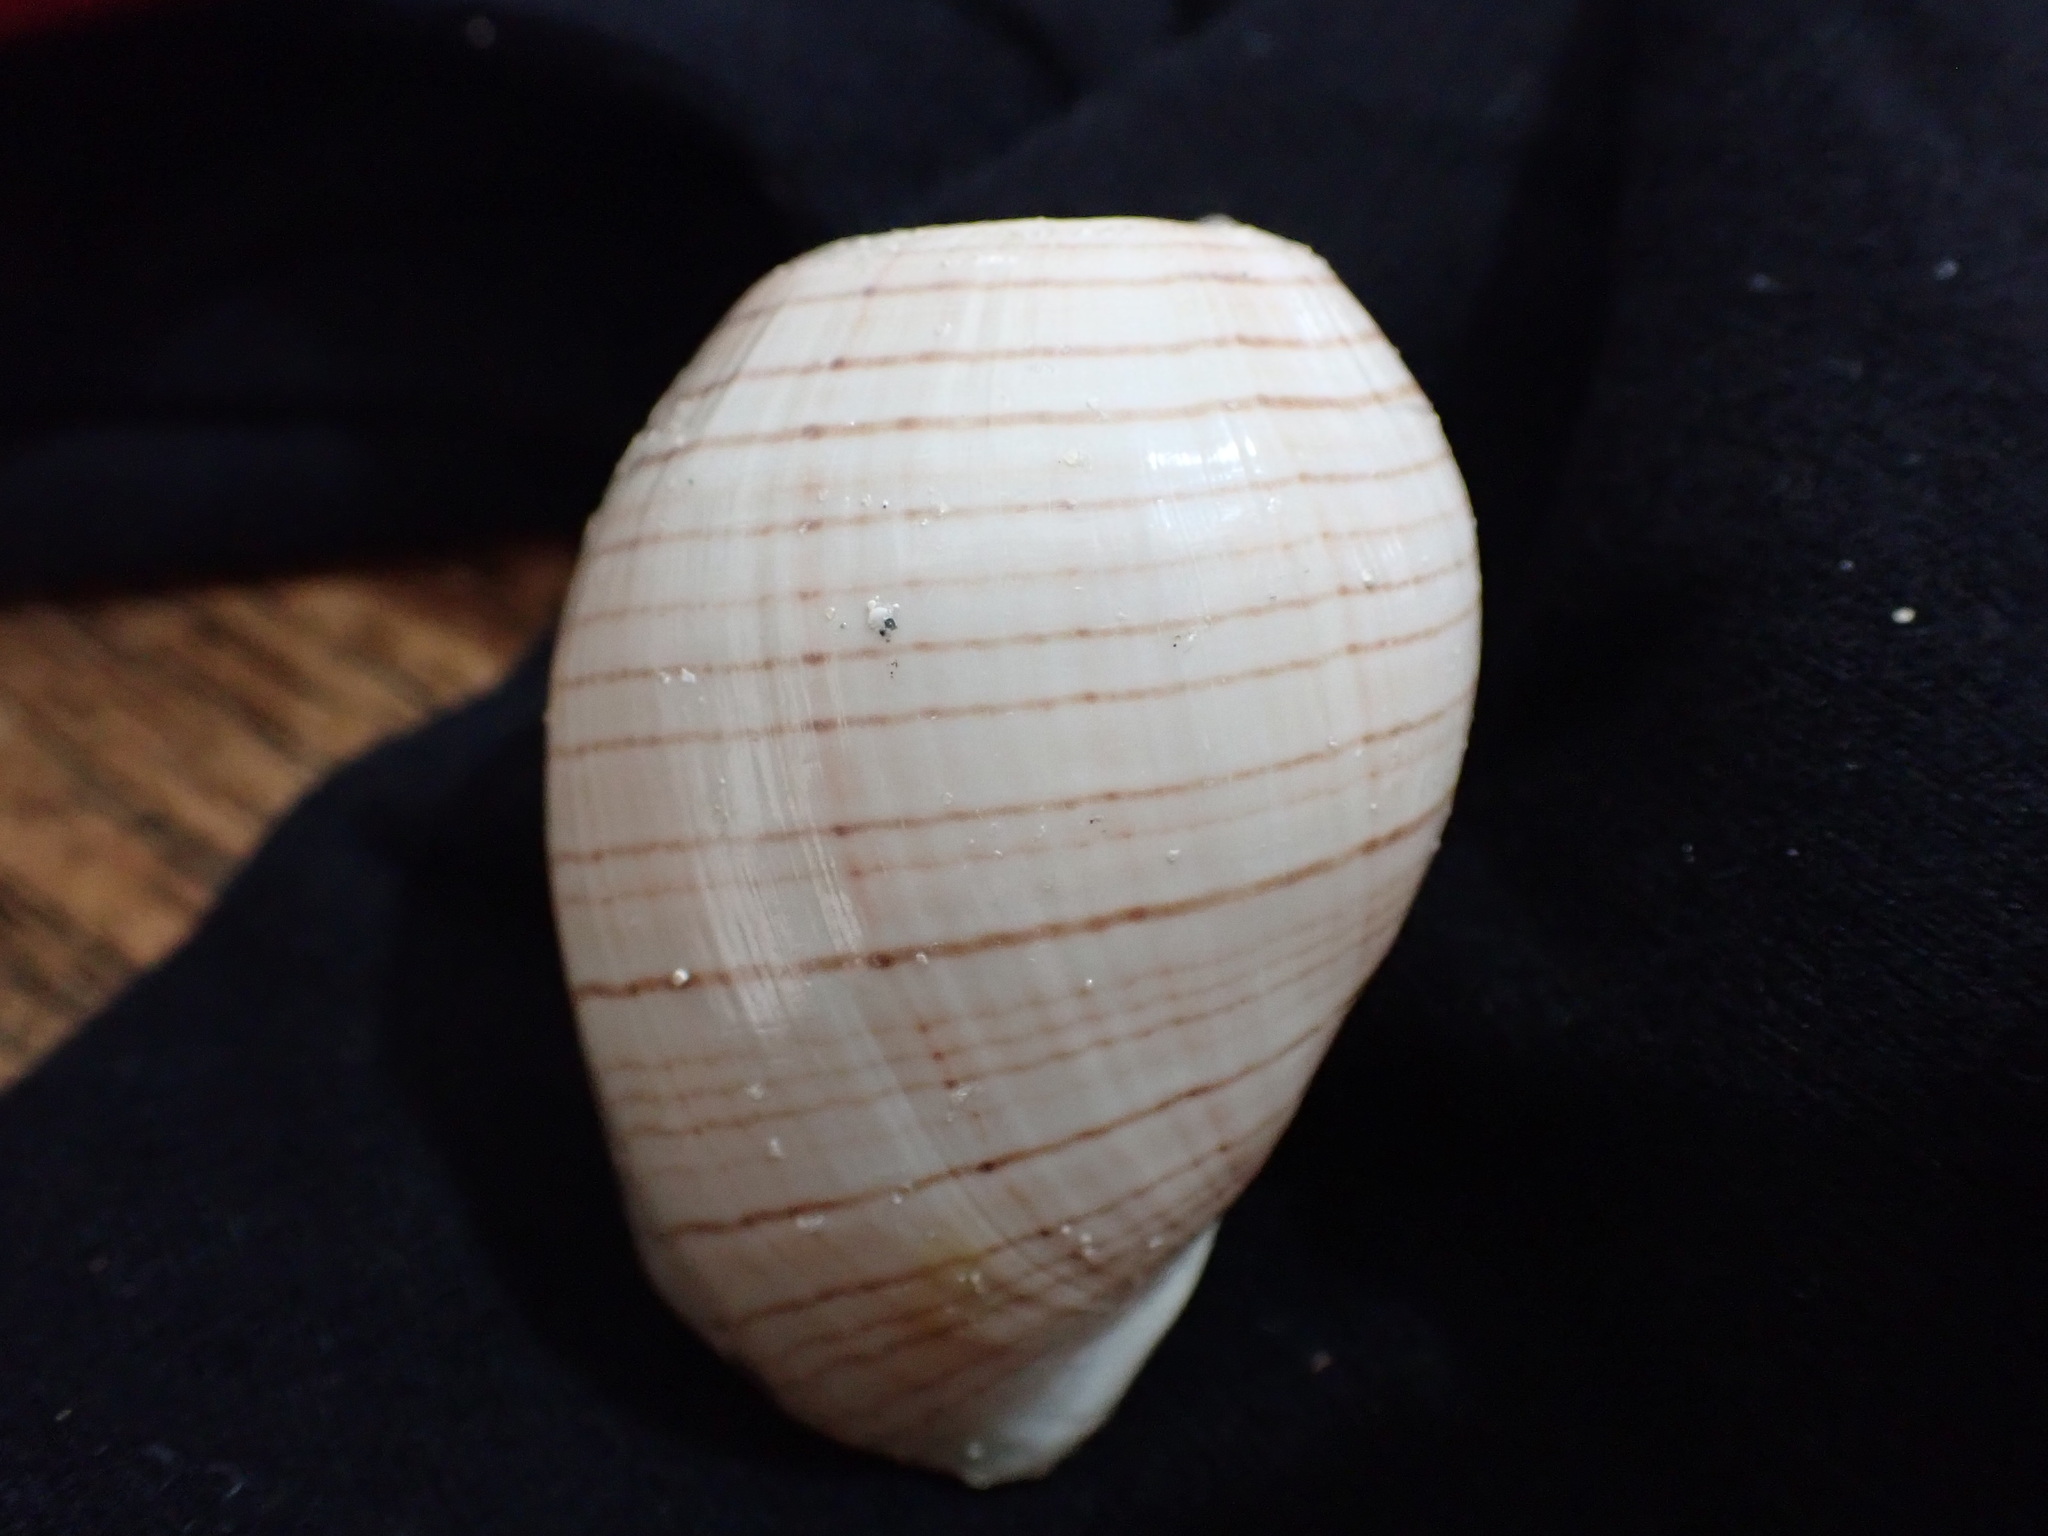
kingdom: Animalia
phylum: Mollusca
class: Gastropoda
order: Cephalaspidea
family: Aplustridae
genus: Hydatina
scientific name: Hydatina physis
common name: Brown-line paperbubble
